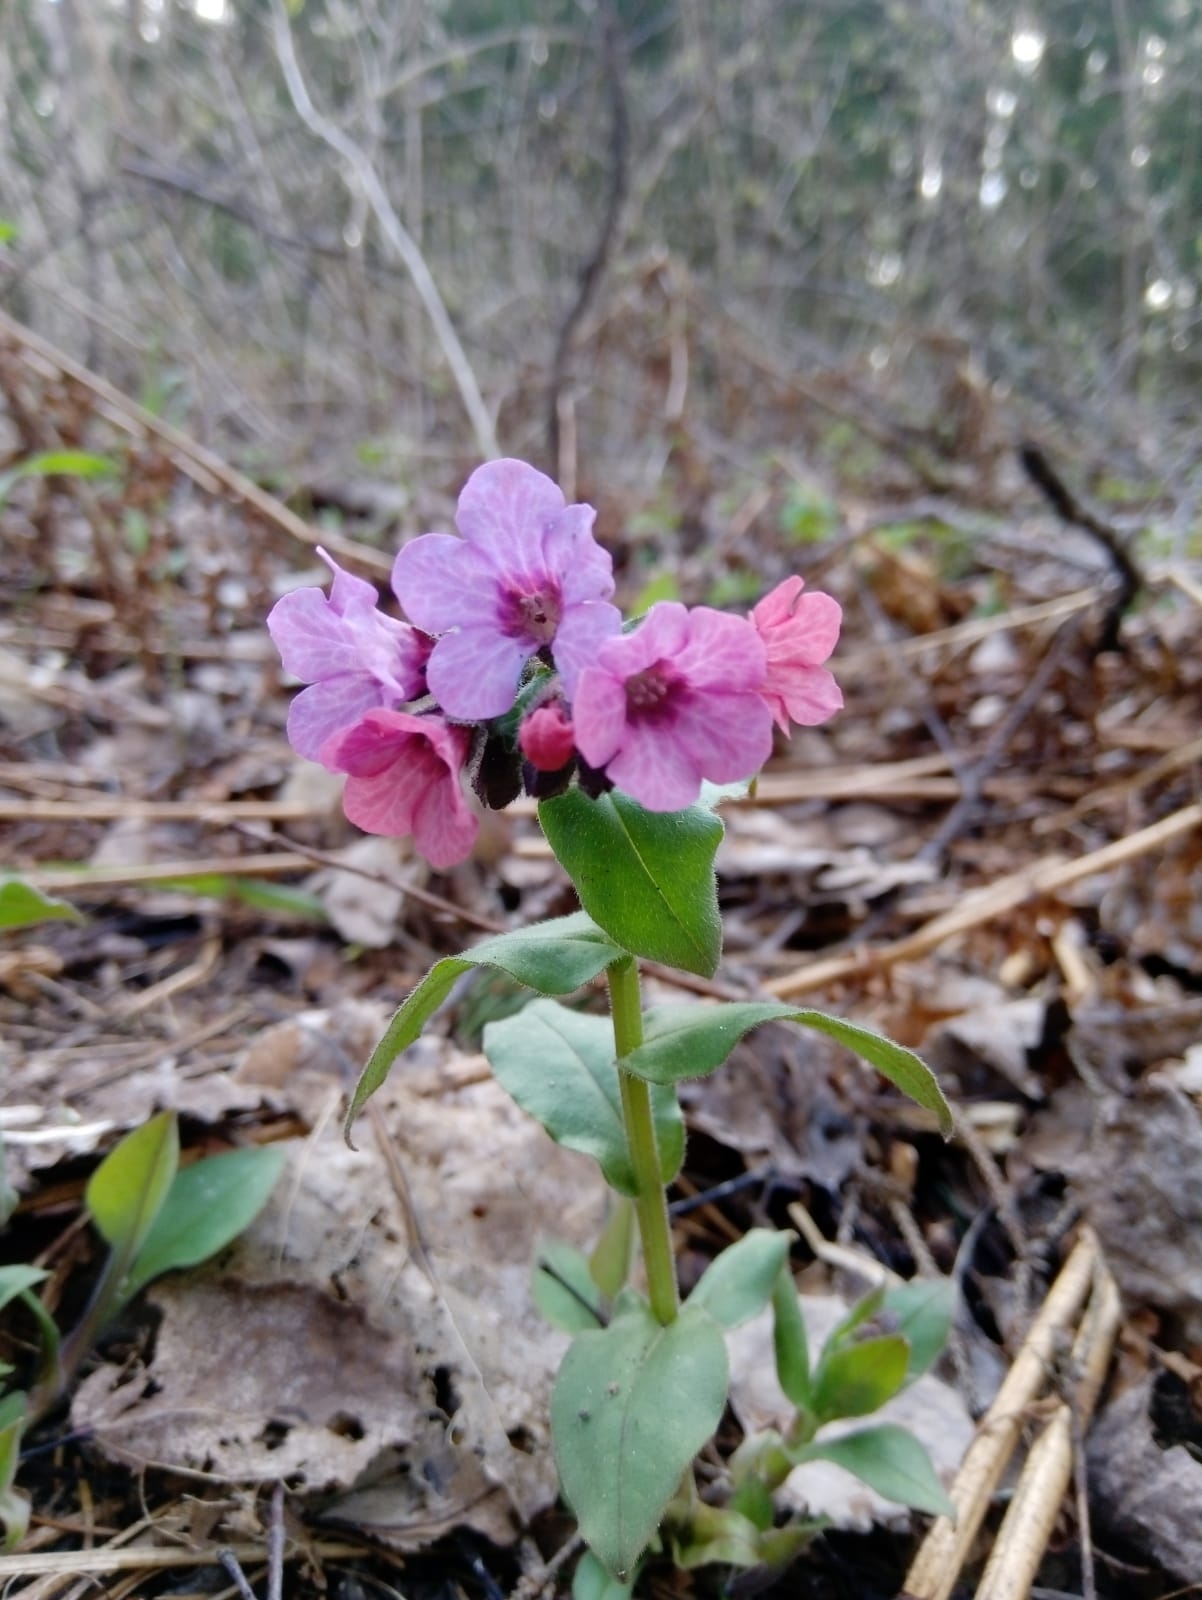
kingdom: Plantae
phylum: Tracheophyta
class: Magnoliopsida
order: Boraginales
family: Boraginaceae
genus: Pulmonaria
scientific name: Pulmonaria obscura
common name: Suffolk lungwort
